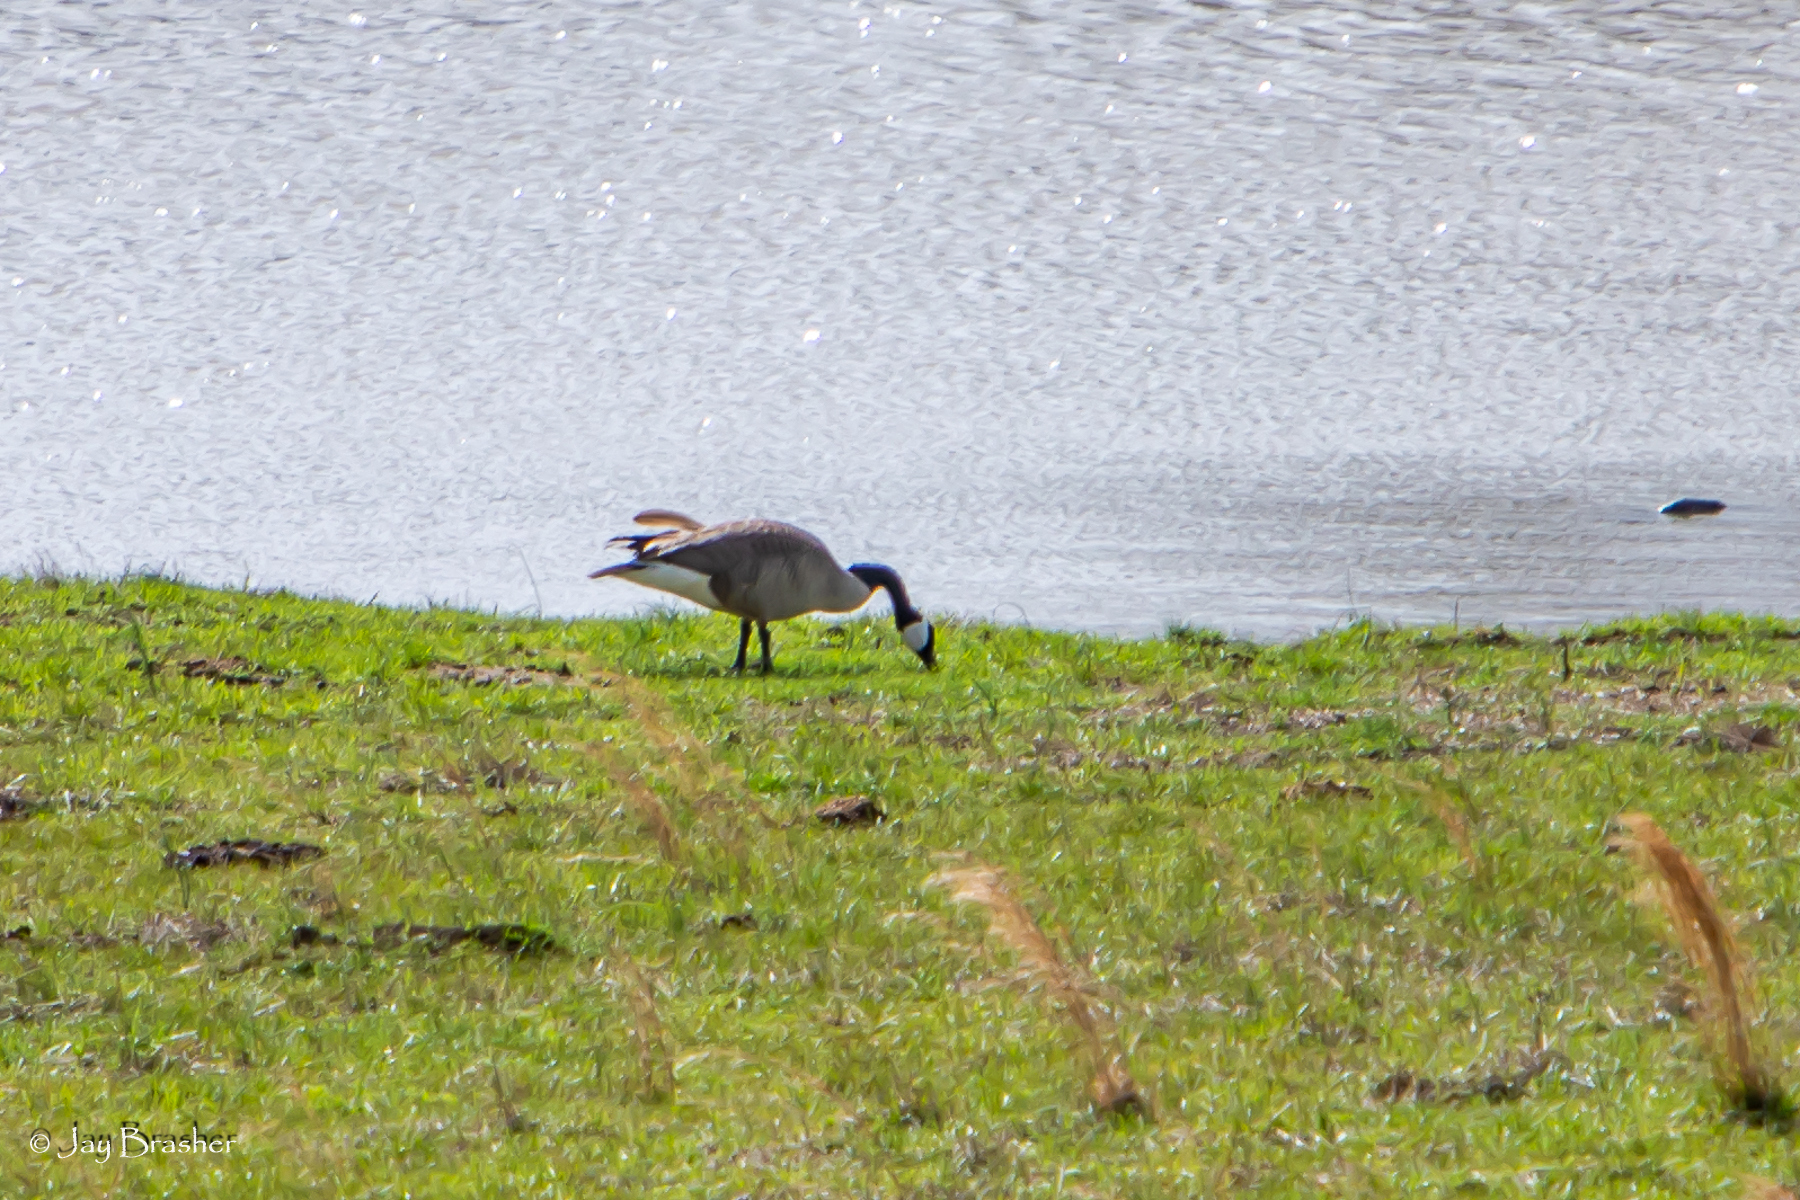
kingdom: Animalia
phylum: Chordata
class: Aves
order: Anseriformes
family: Anatidae
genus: Branta
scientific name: Branta canadensis
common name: Canada goose
